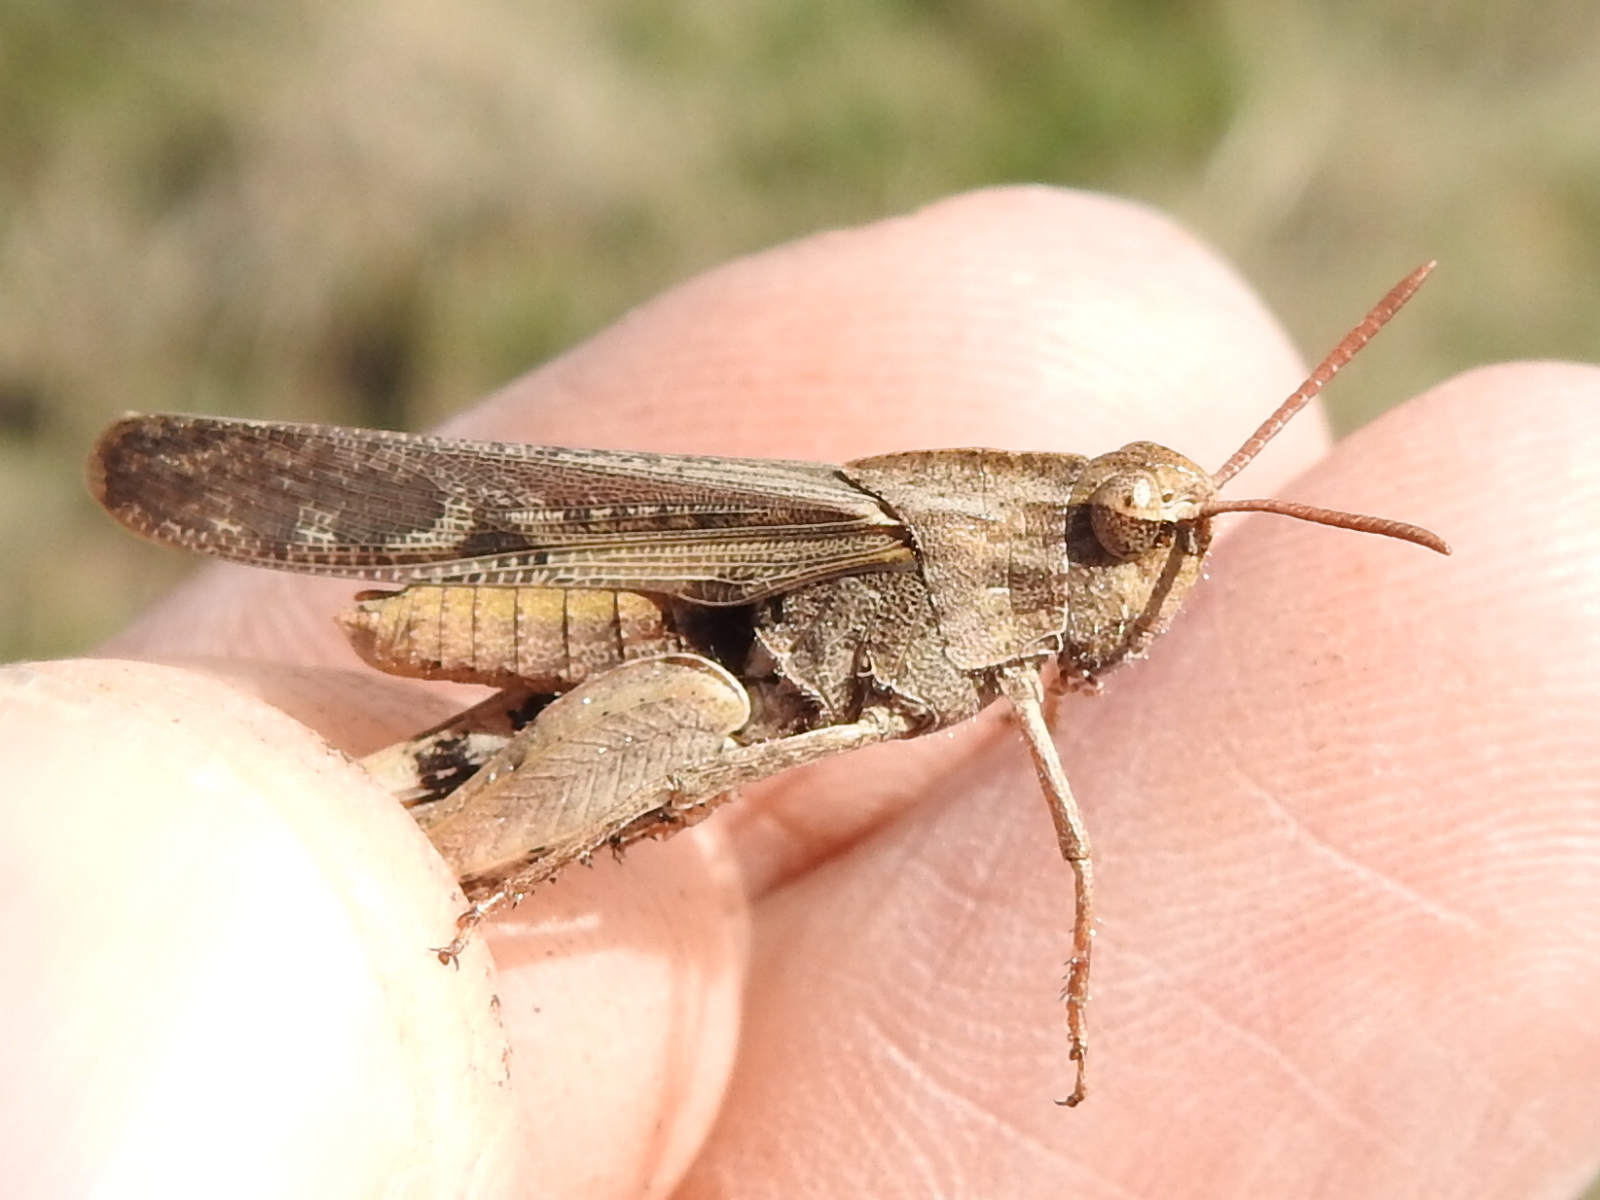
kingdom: Animalia
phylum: Arthropoda
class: Insecta
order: Orthoptera
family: Acrididae
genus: Chortophaga
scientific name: Chortophaga viridifasciata
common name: Green-striped grasshopper
